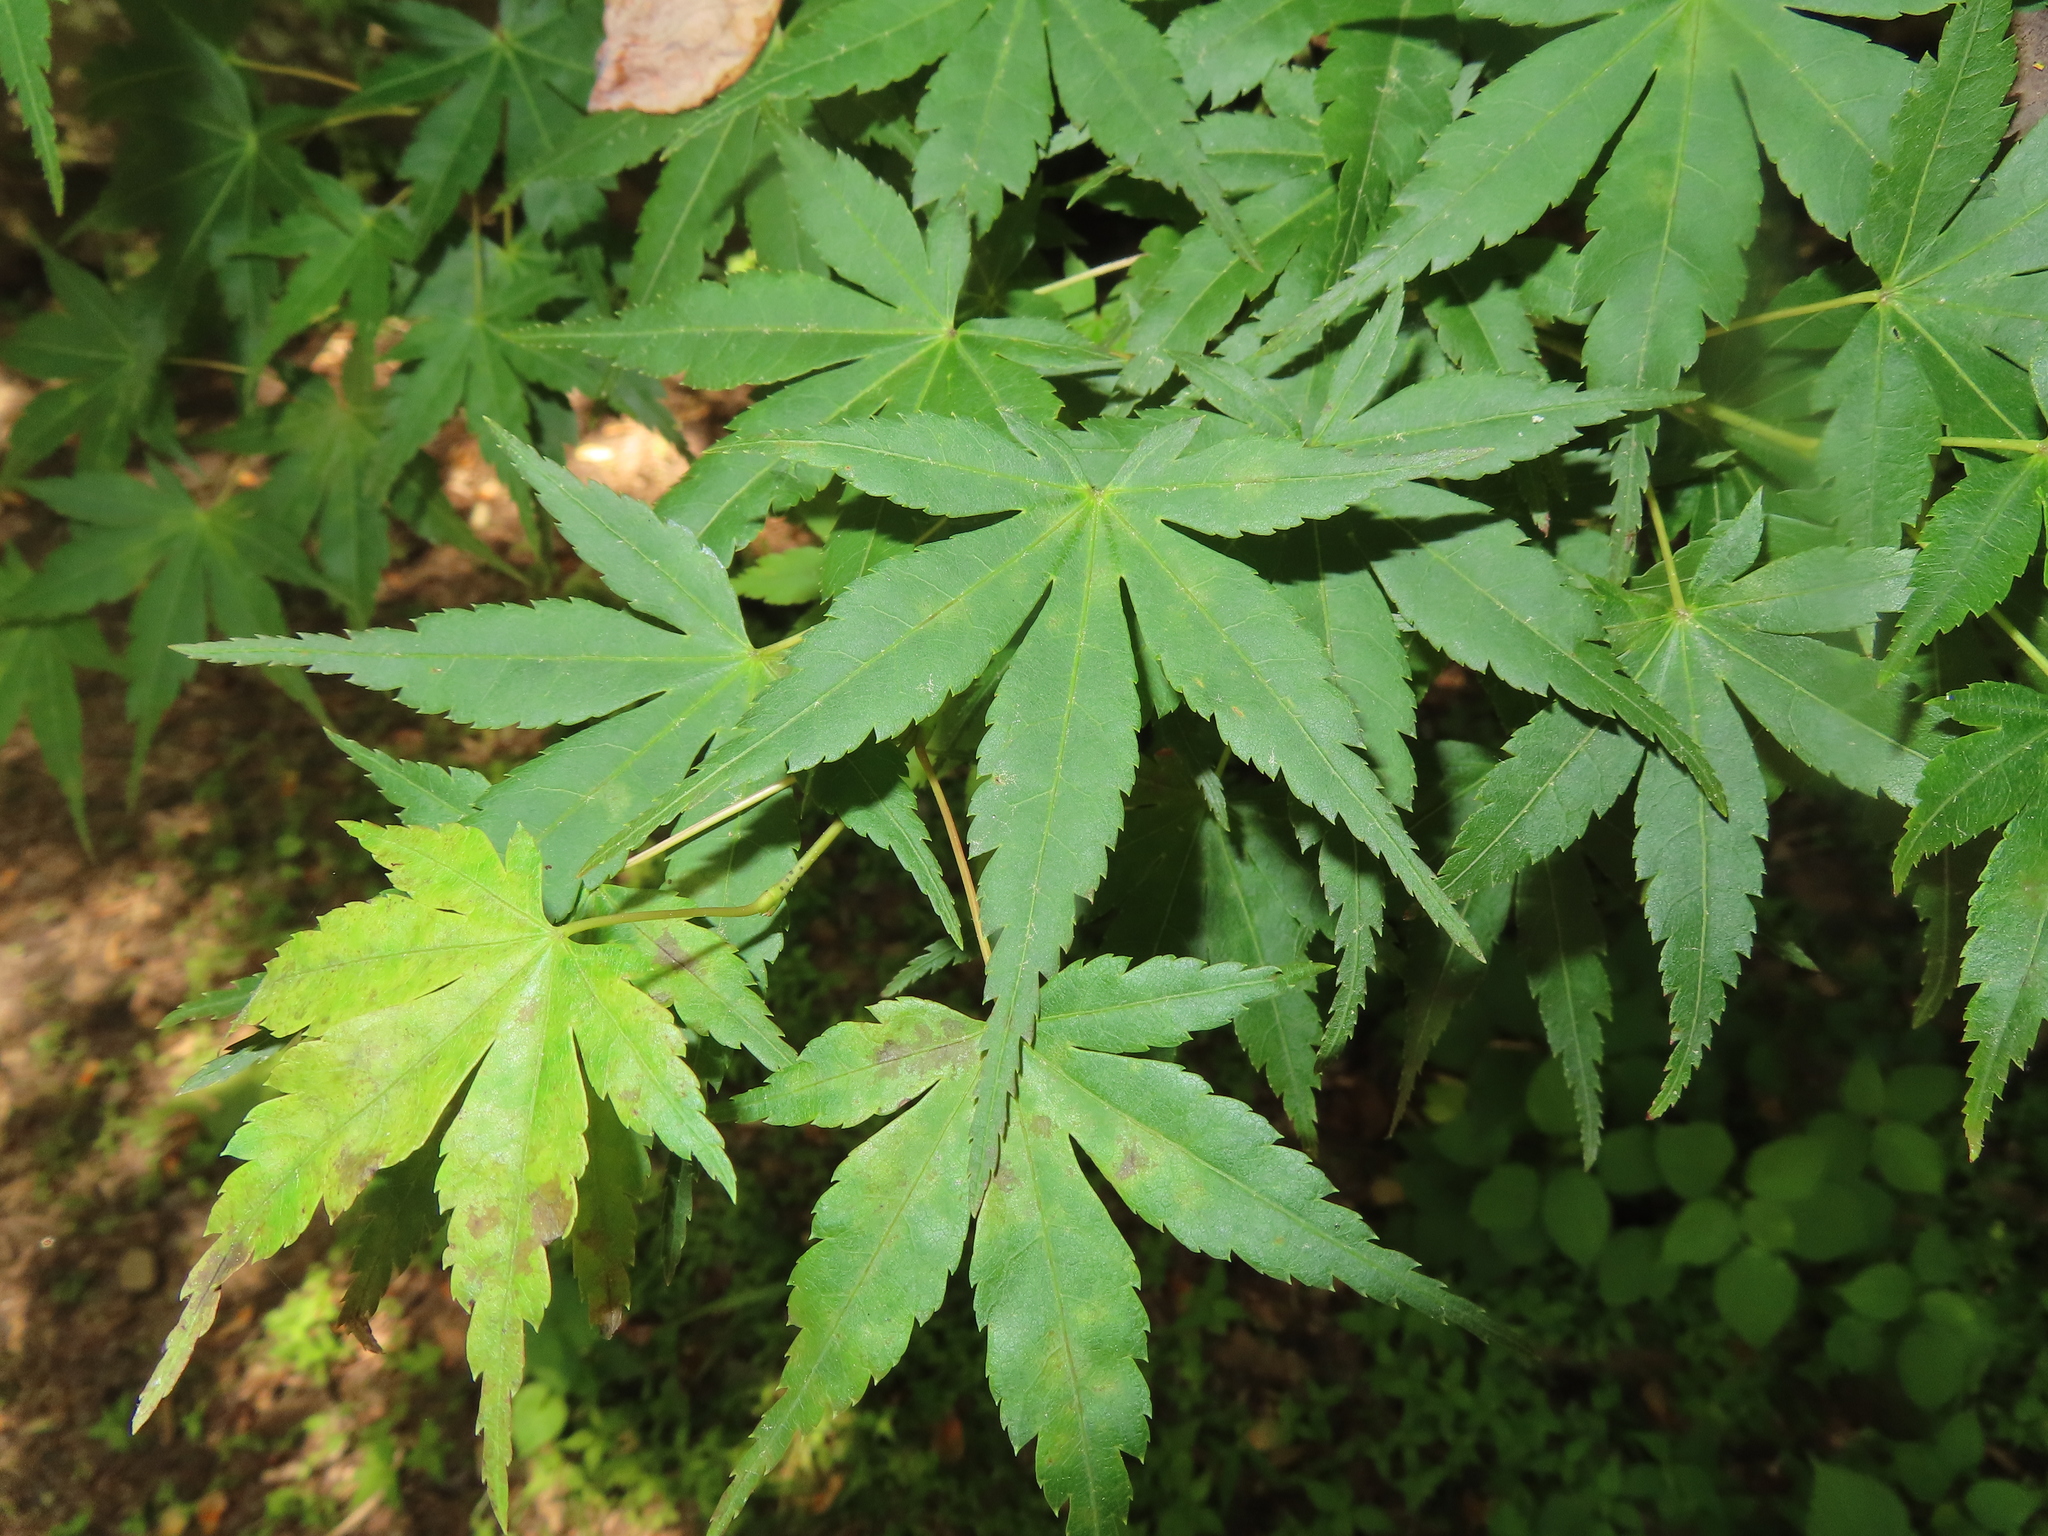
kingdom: Plantae
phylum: Tracheophyta
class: Magnoliopsida
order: Sapindales
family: Sapindaceae
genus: Acer
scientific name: Acer palmatum
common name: Japanese maple
